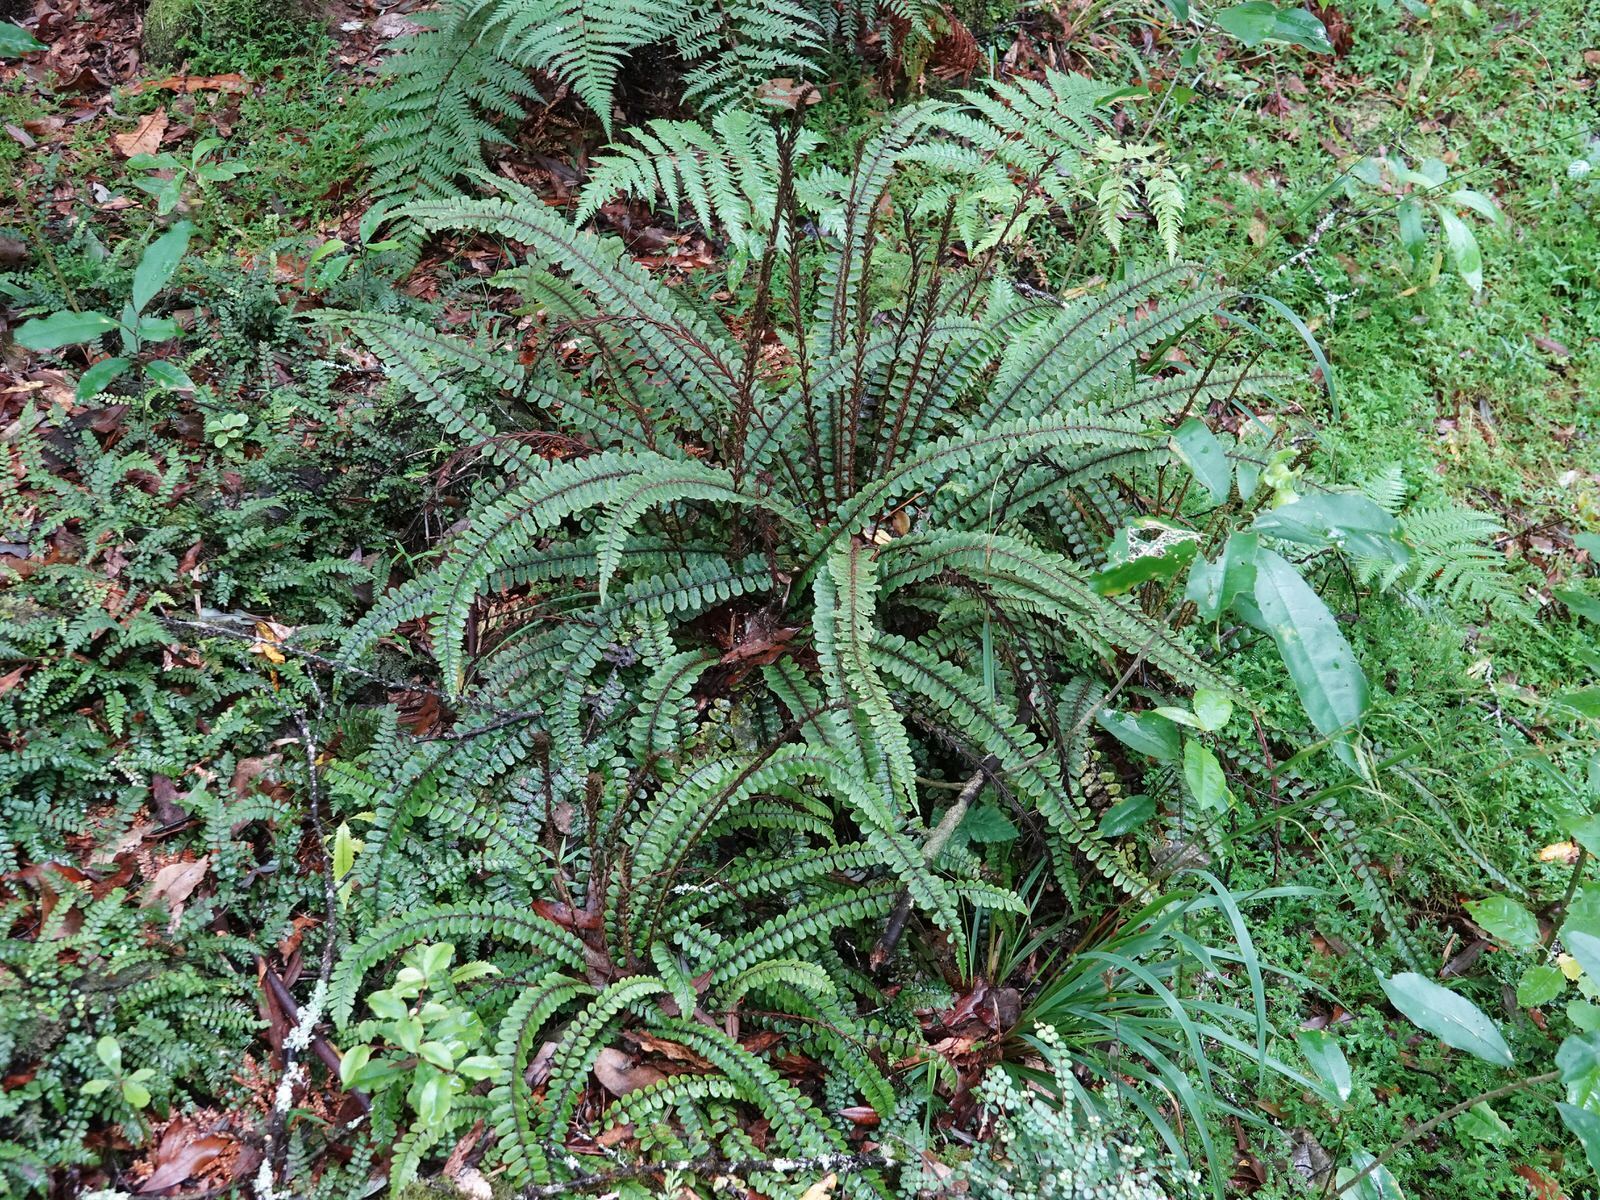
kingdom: Plantae
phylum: Tracheophyta
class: Polypodiopsida
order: Polypodiales
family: Blechnaceae
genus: Cranfillia
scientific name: Cranfillia fluviatilis
